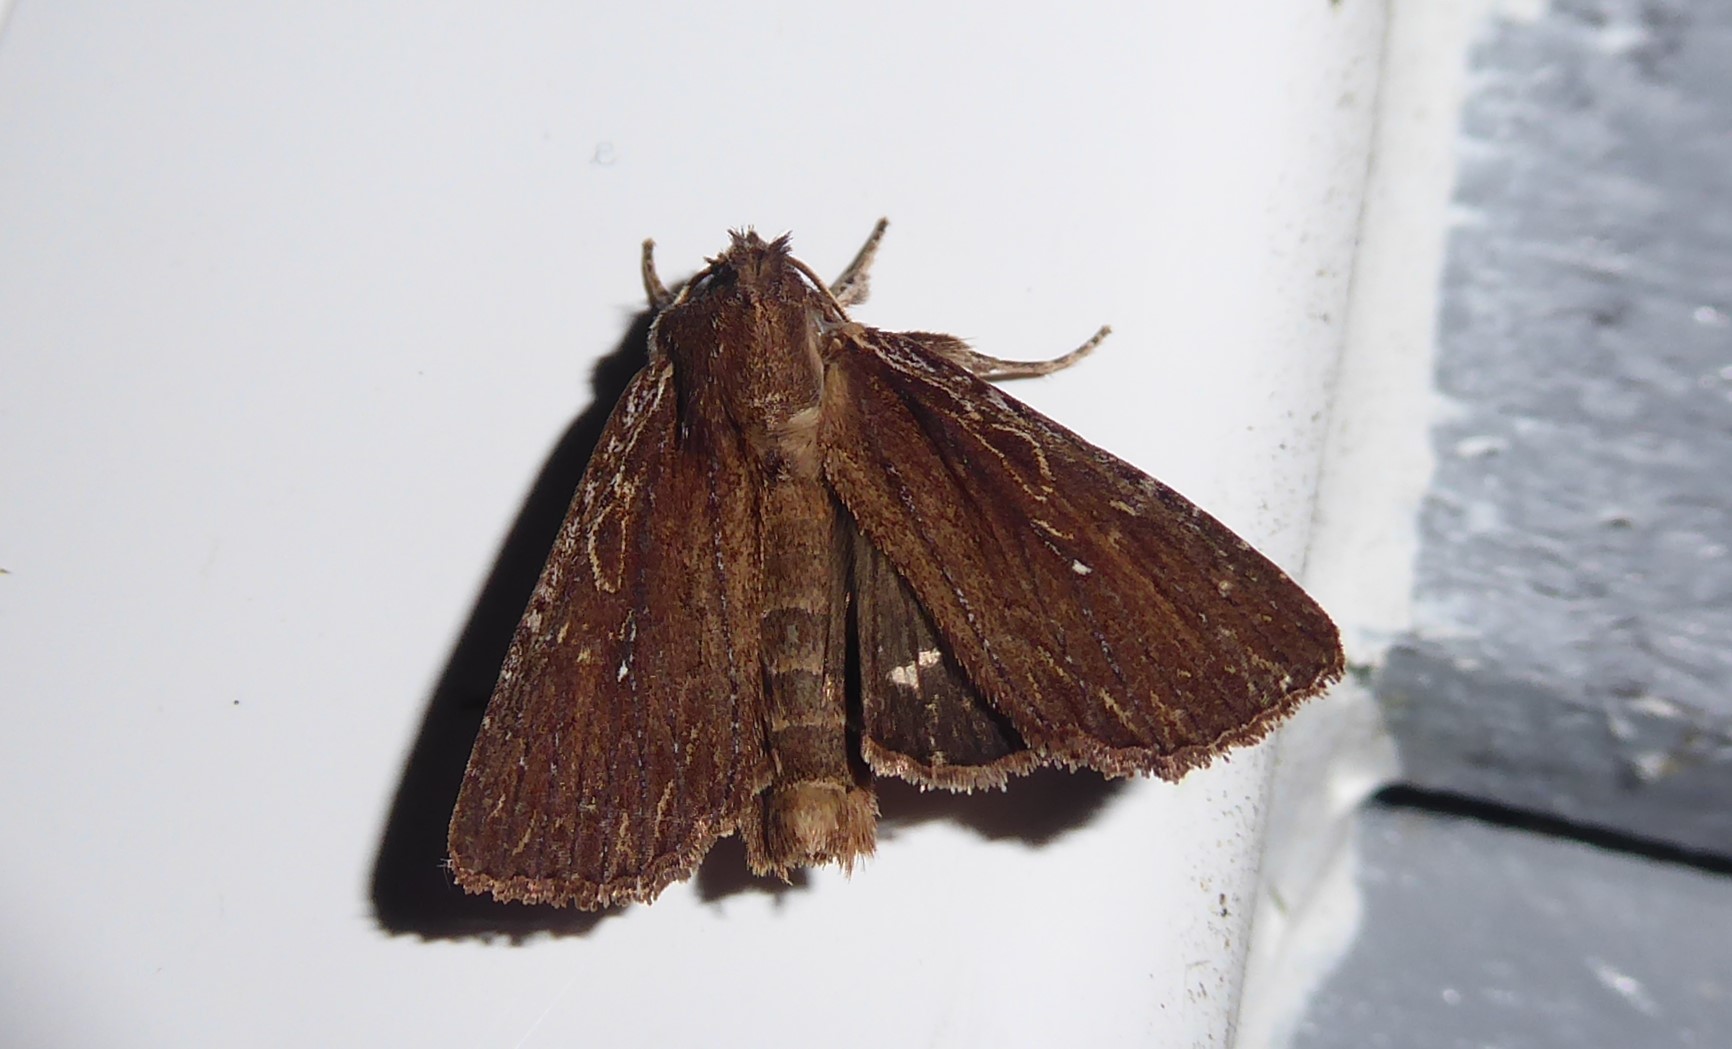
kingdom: Animalia
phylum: Arthropoda
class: Insecta
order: Lepidoptera
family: Noctuidae
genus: Ichneutica
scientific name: Ichneutica
